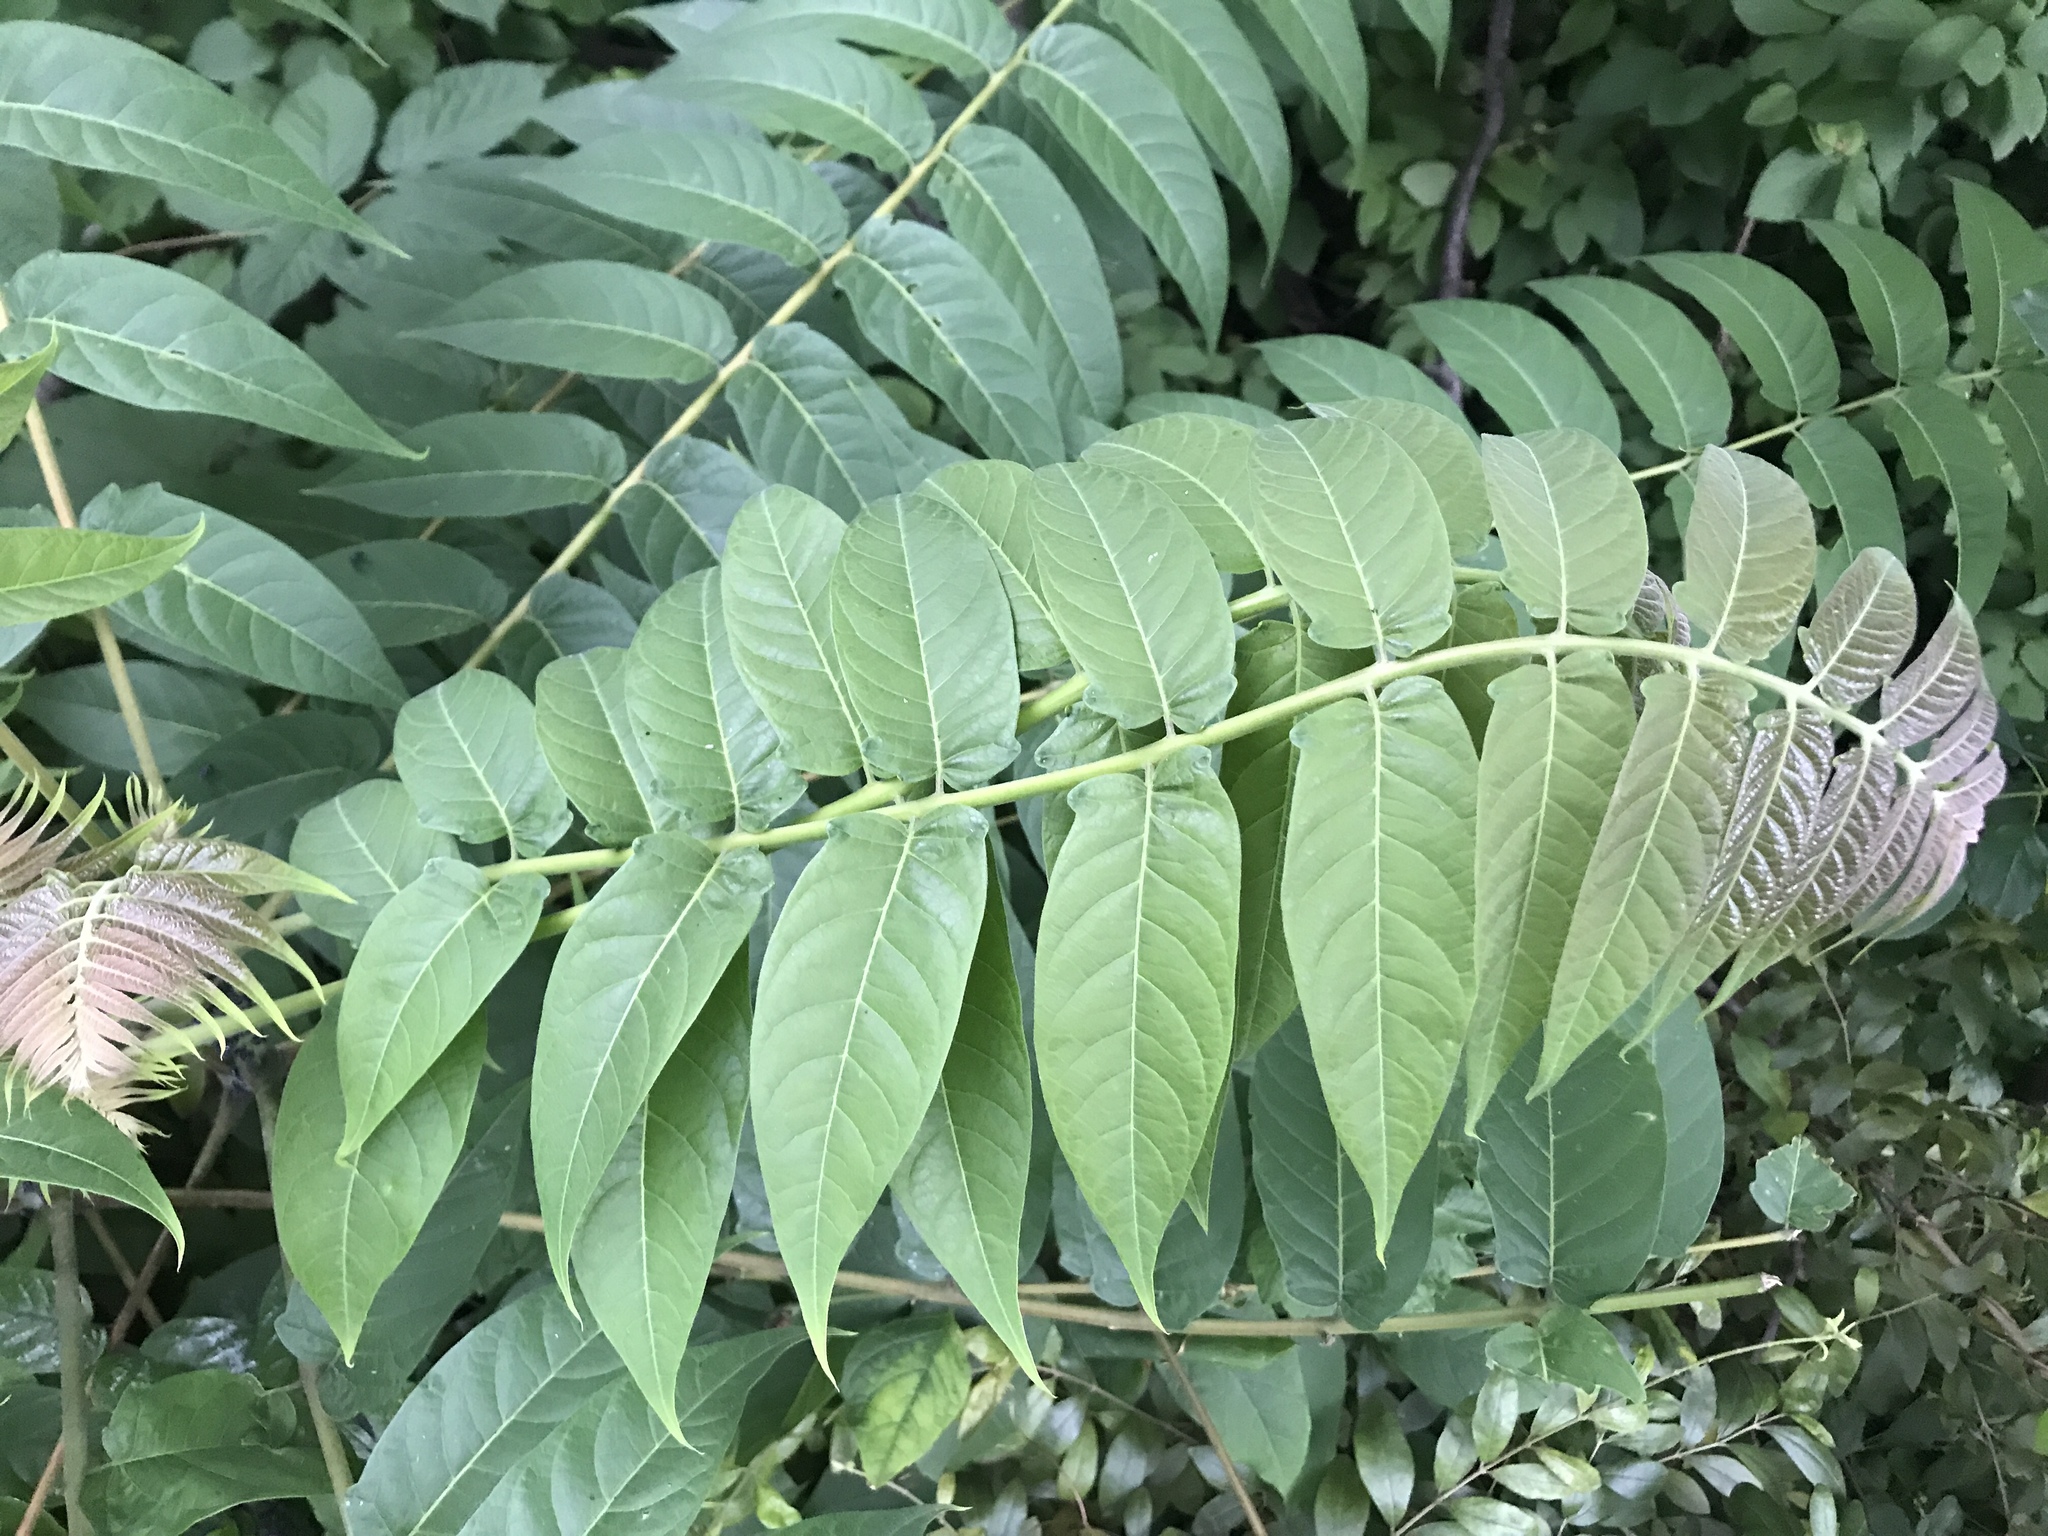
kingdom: Plantae
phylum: Tracheophyta
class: Magnoliopsida
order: Sapindales
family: Simaroubaceae
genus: Ailanthus
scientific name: Ailanthus altissima
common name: Tree-of-heaven
